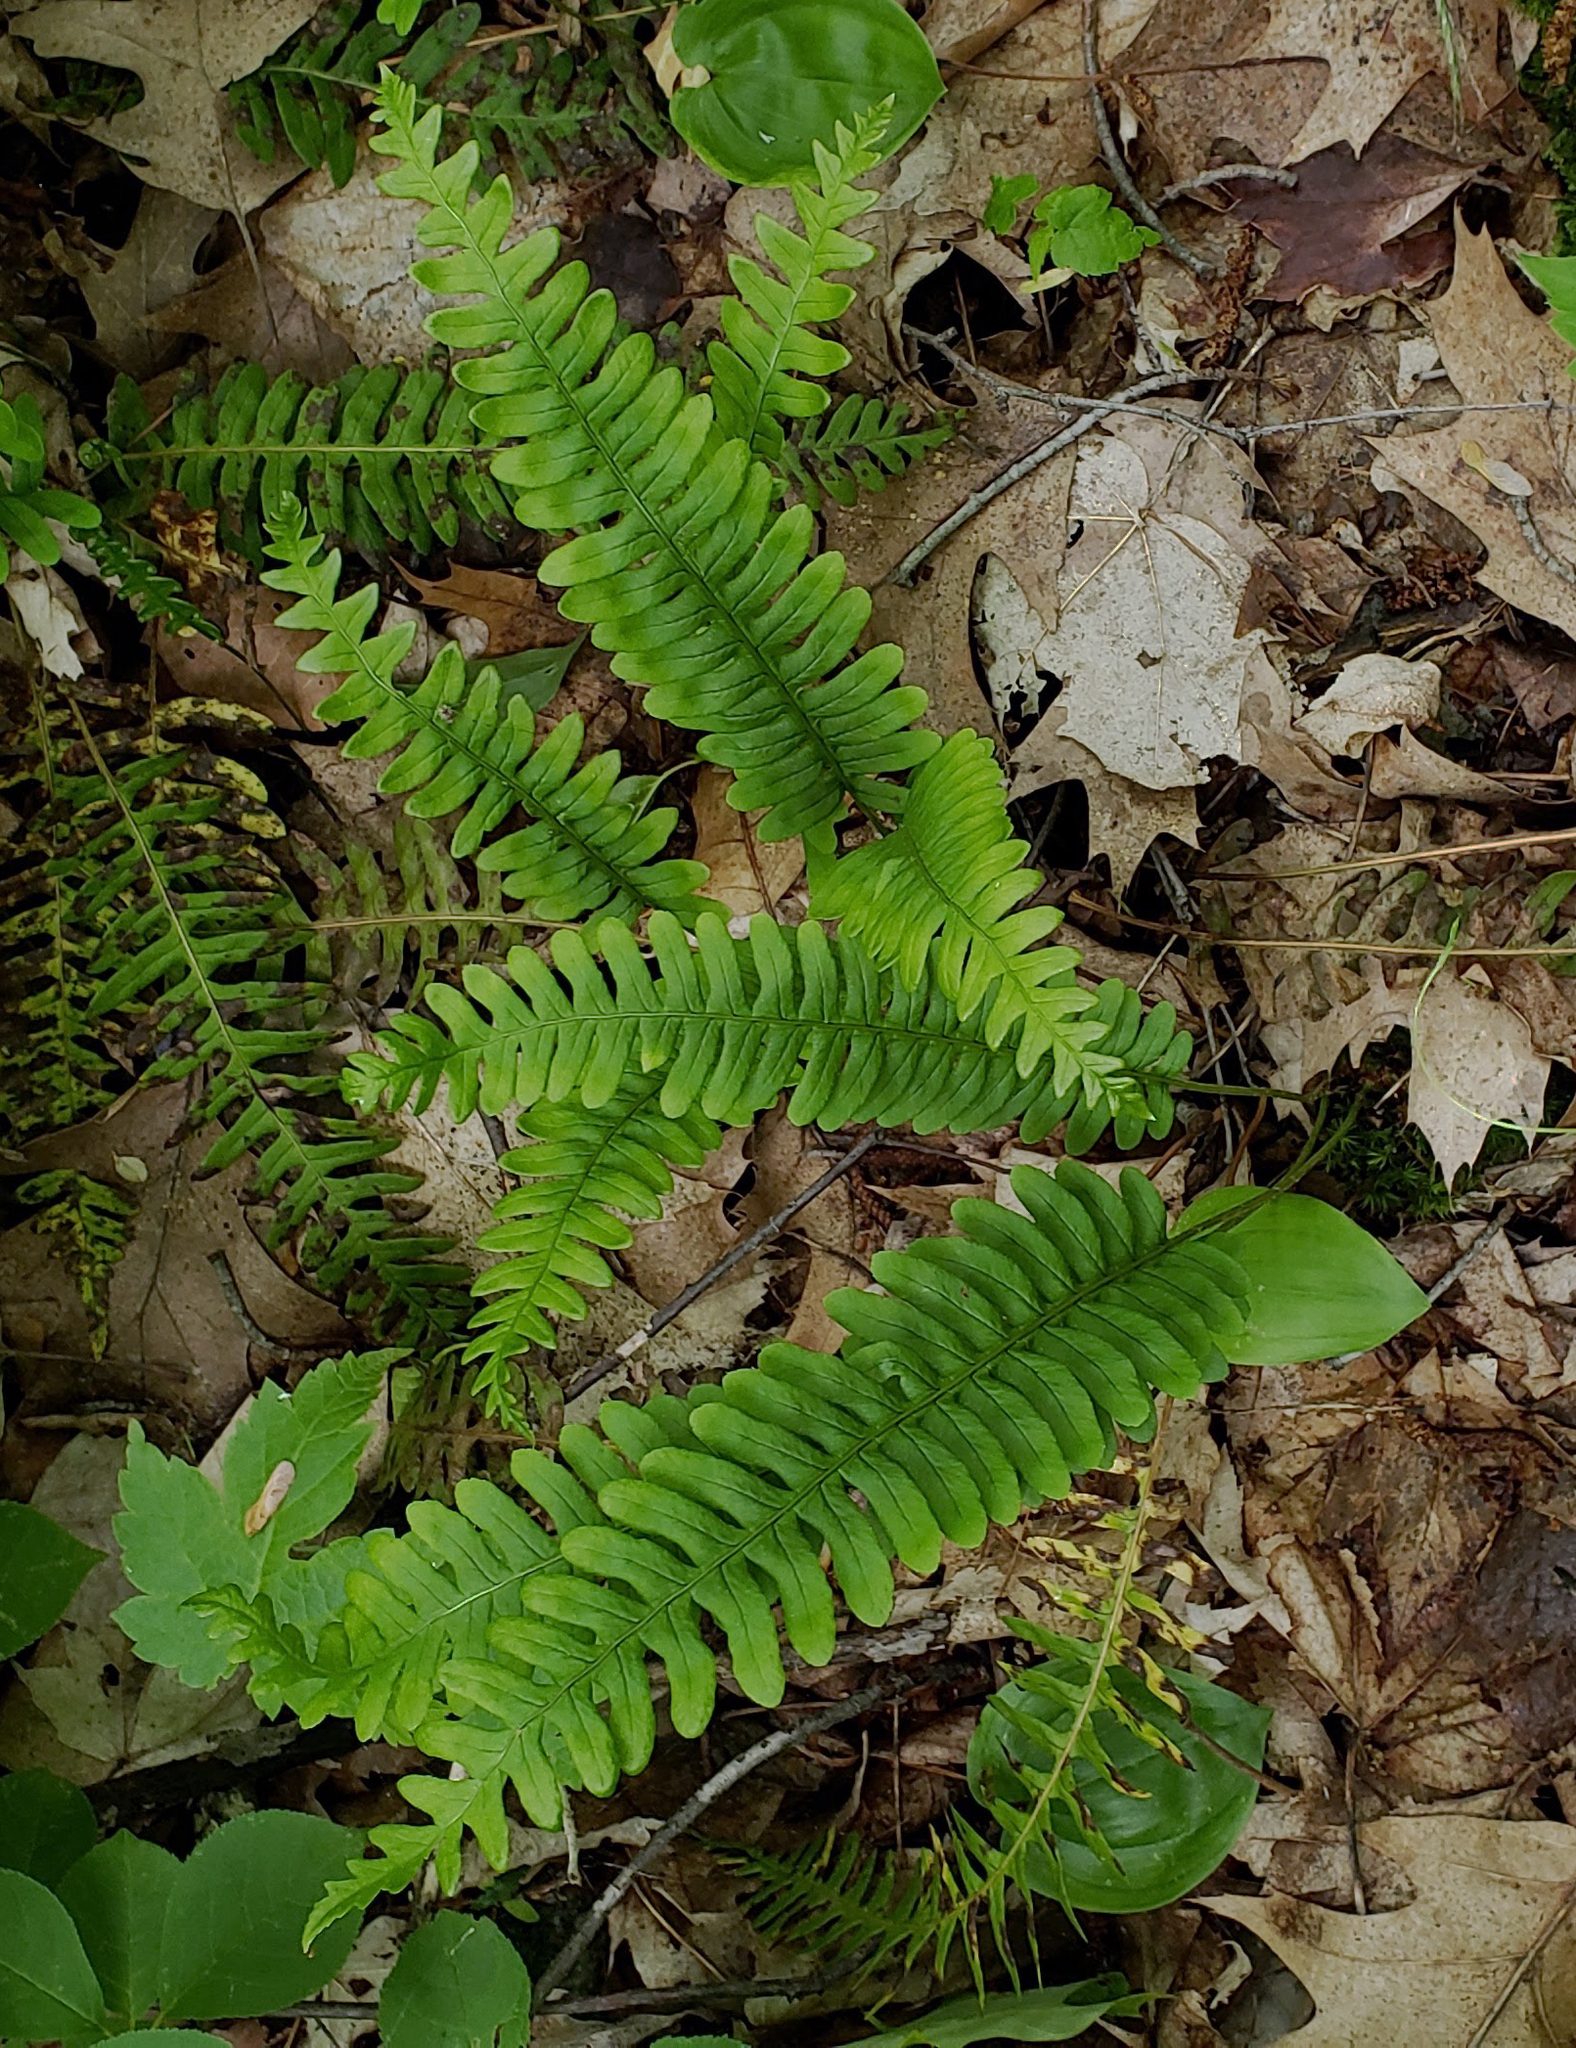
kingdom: Plantae
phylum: Tracheophyta
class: Polypodiopsida
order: Polypodiales
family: Polypodiaceae
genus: Polypodium
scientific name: Polypodium virginianum
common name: American wall fern
